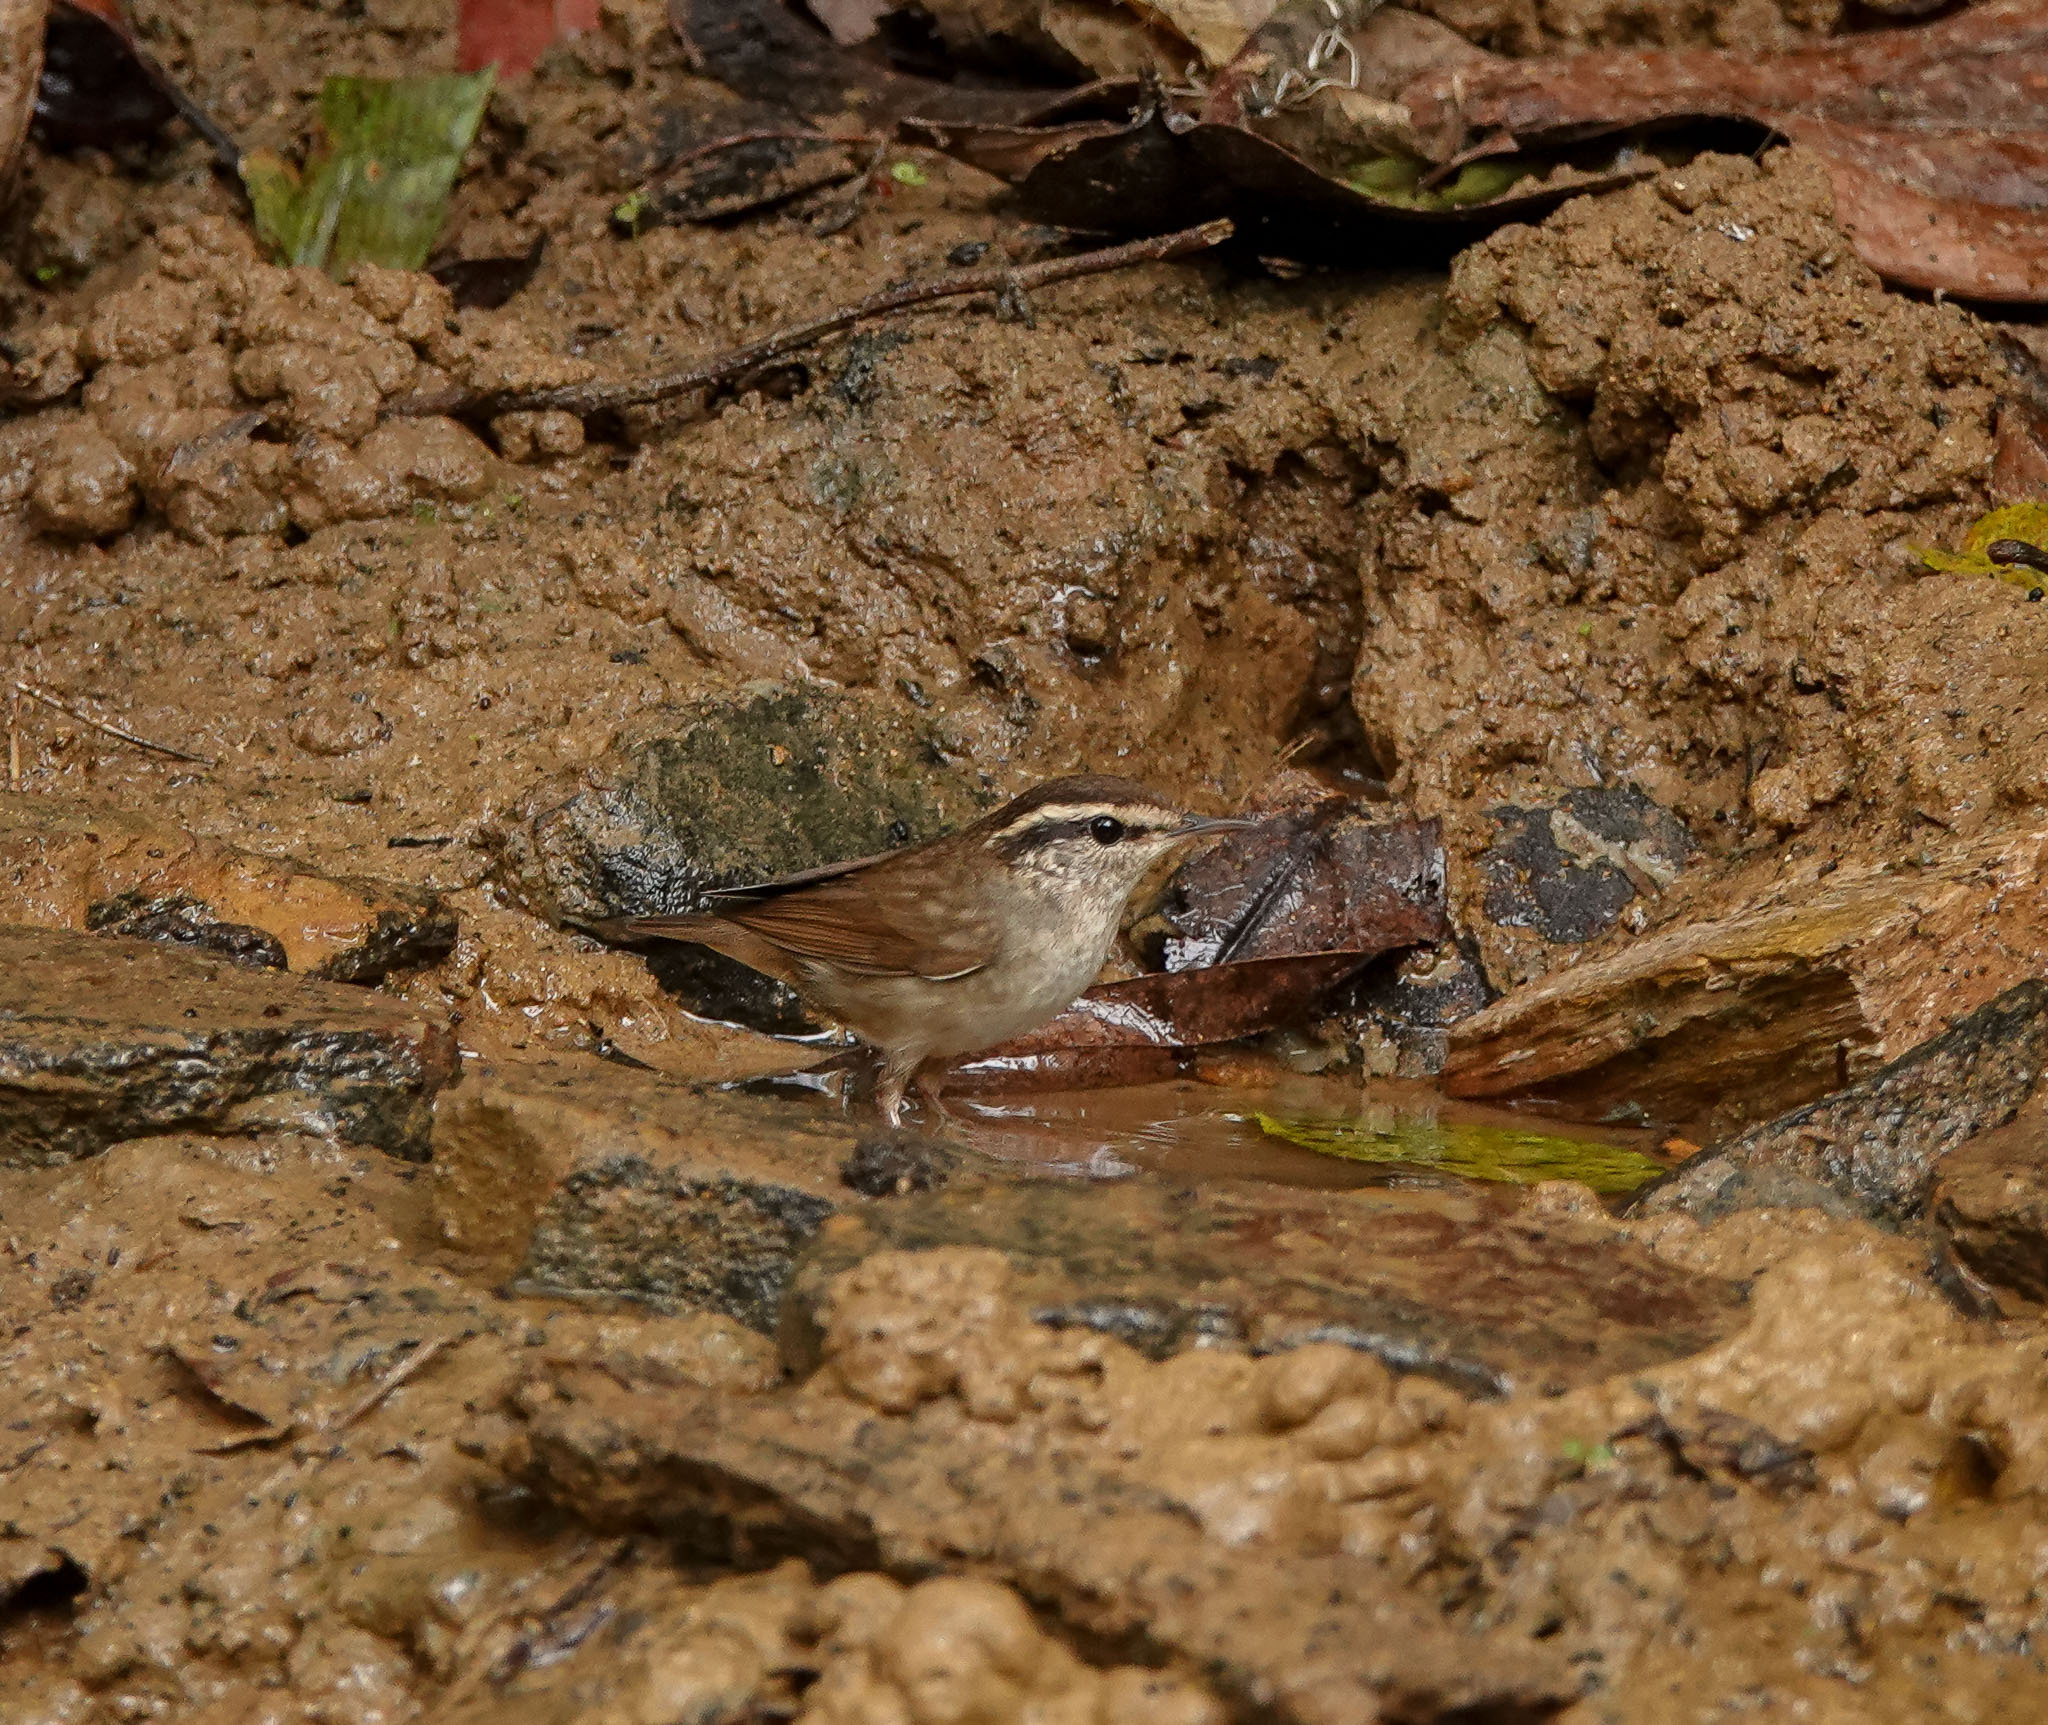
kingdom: Animalia
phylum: Chordata
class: Aves
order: Passeriformes
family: Cettiidae
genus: Urosphena
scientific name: Urosphena squameiceps
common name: Asian stubtail
